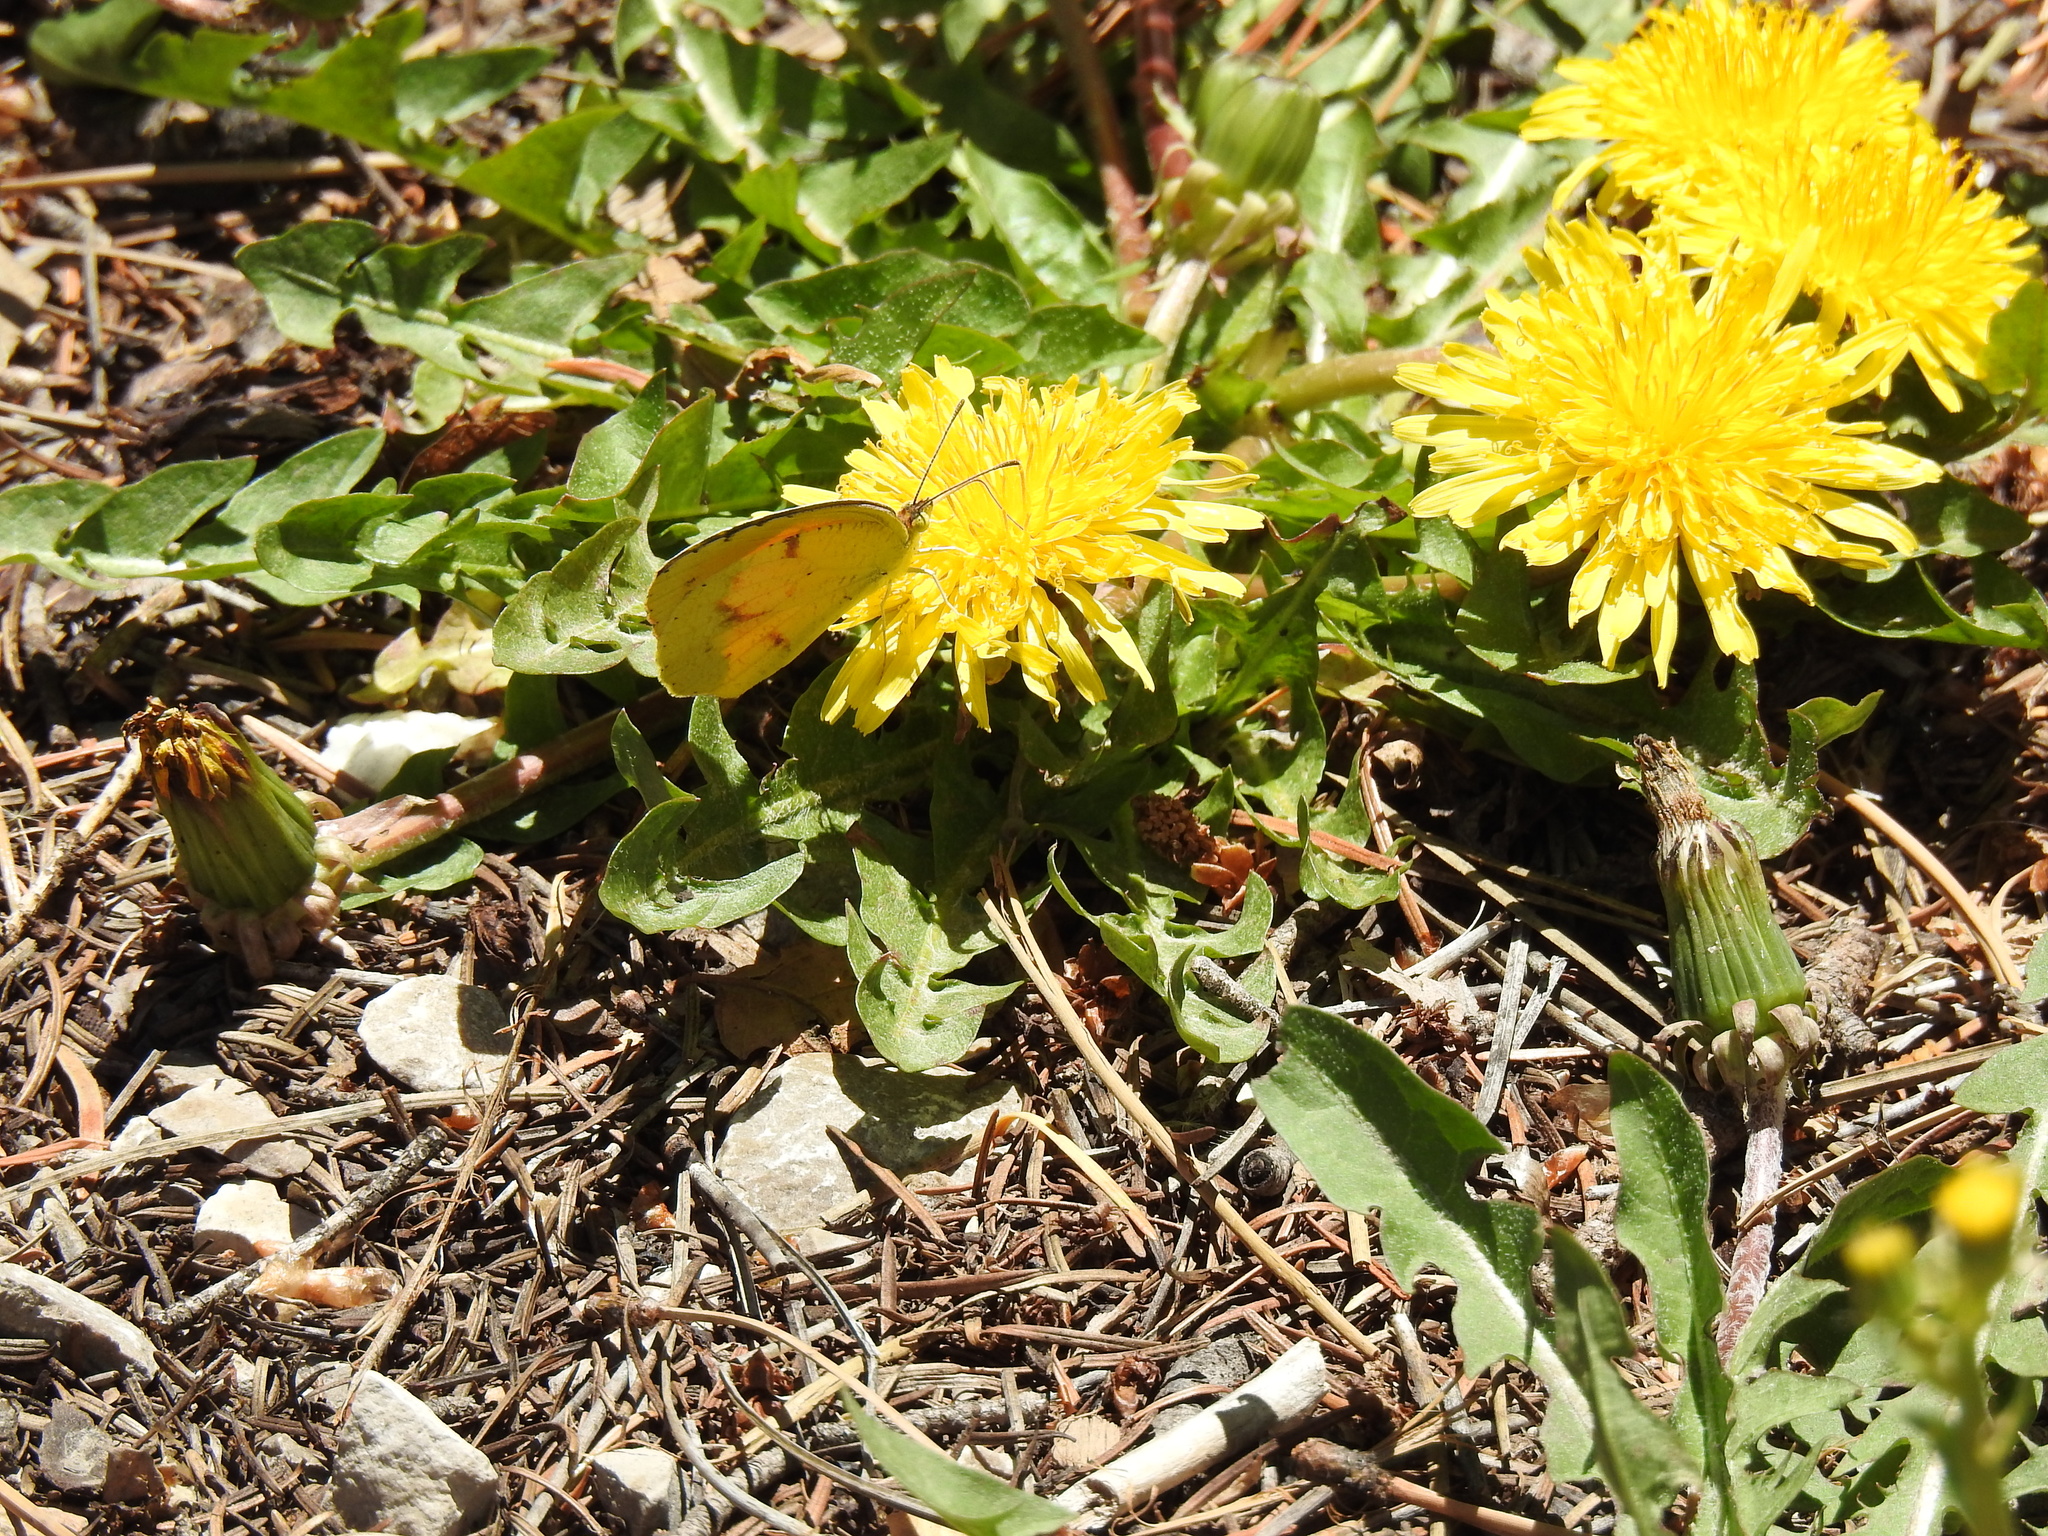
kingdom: Animalia
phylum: Arthropoda
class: Insecta
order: Lepidoptera
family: Pieridae
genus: Abaeis
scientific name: Abaeis nicippe
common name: Sleepy orange
